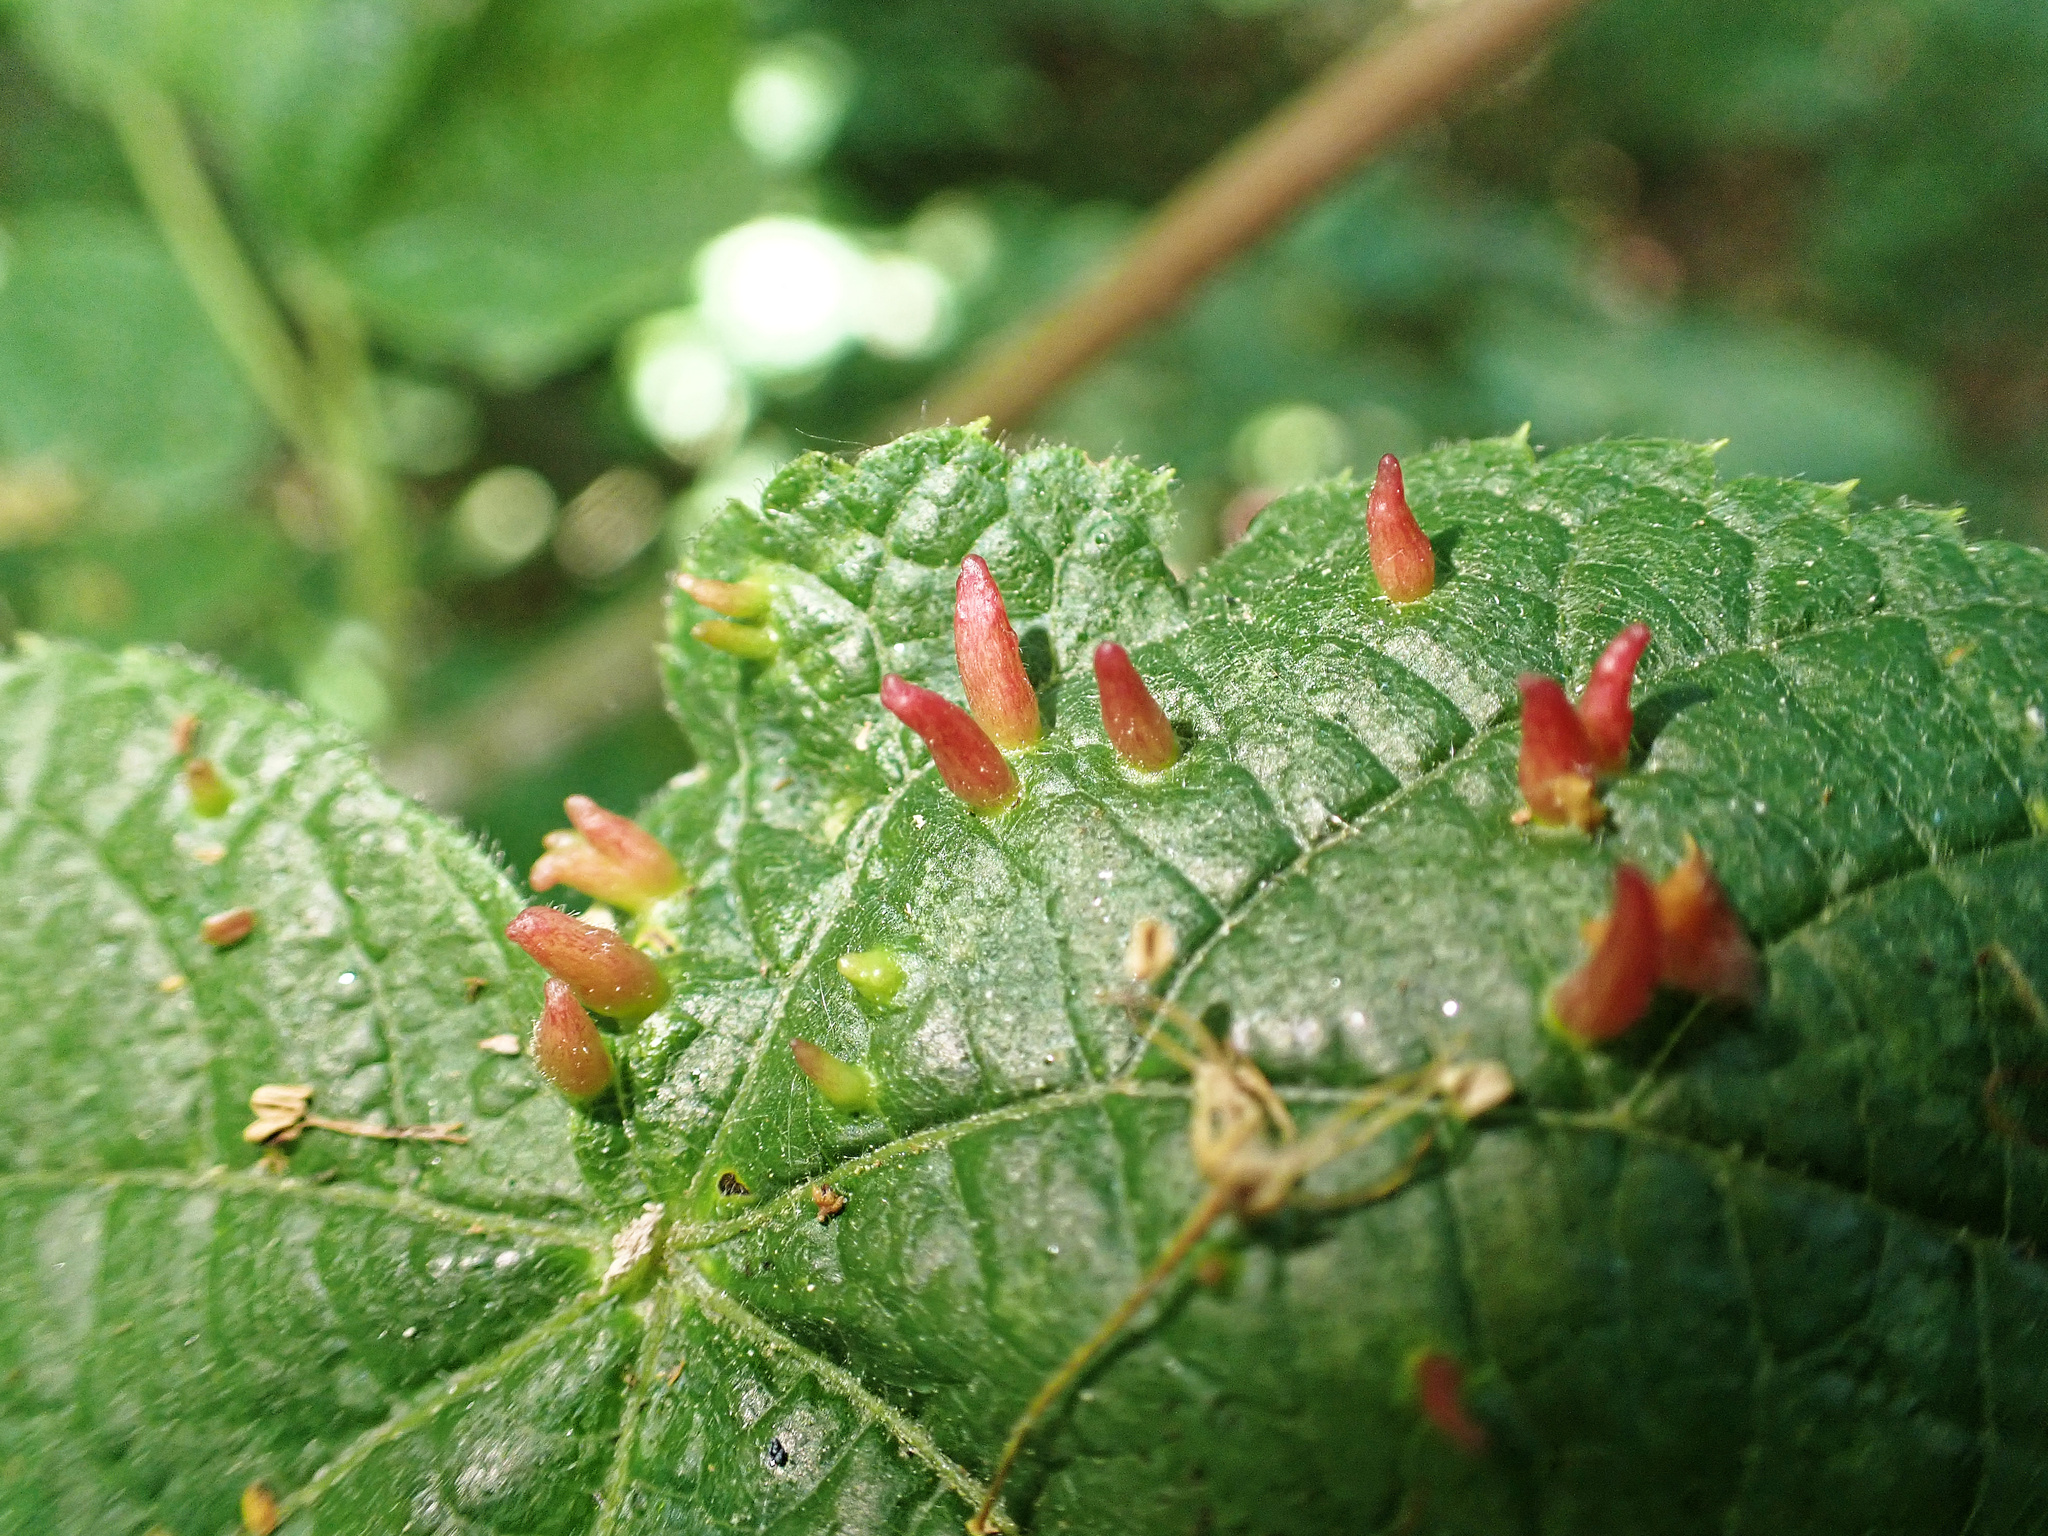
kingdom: Animalia
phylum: Arthropoda
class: Arachnida
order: Trombidiformes
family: Eriophyidae
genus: Eriophyes
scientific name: Eriophyes tiliae
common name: Red nail gall mite
